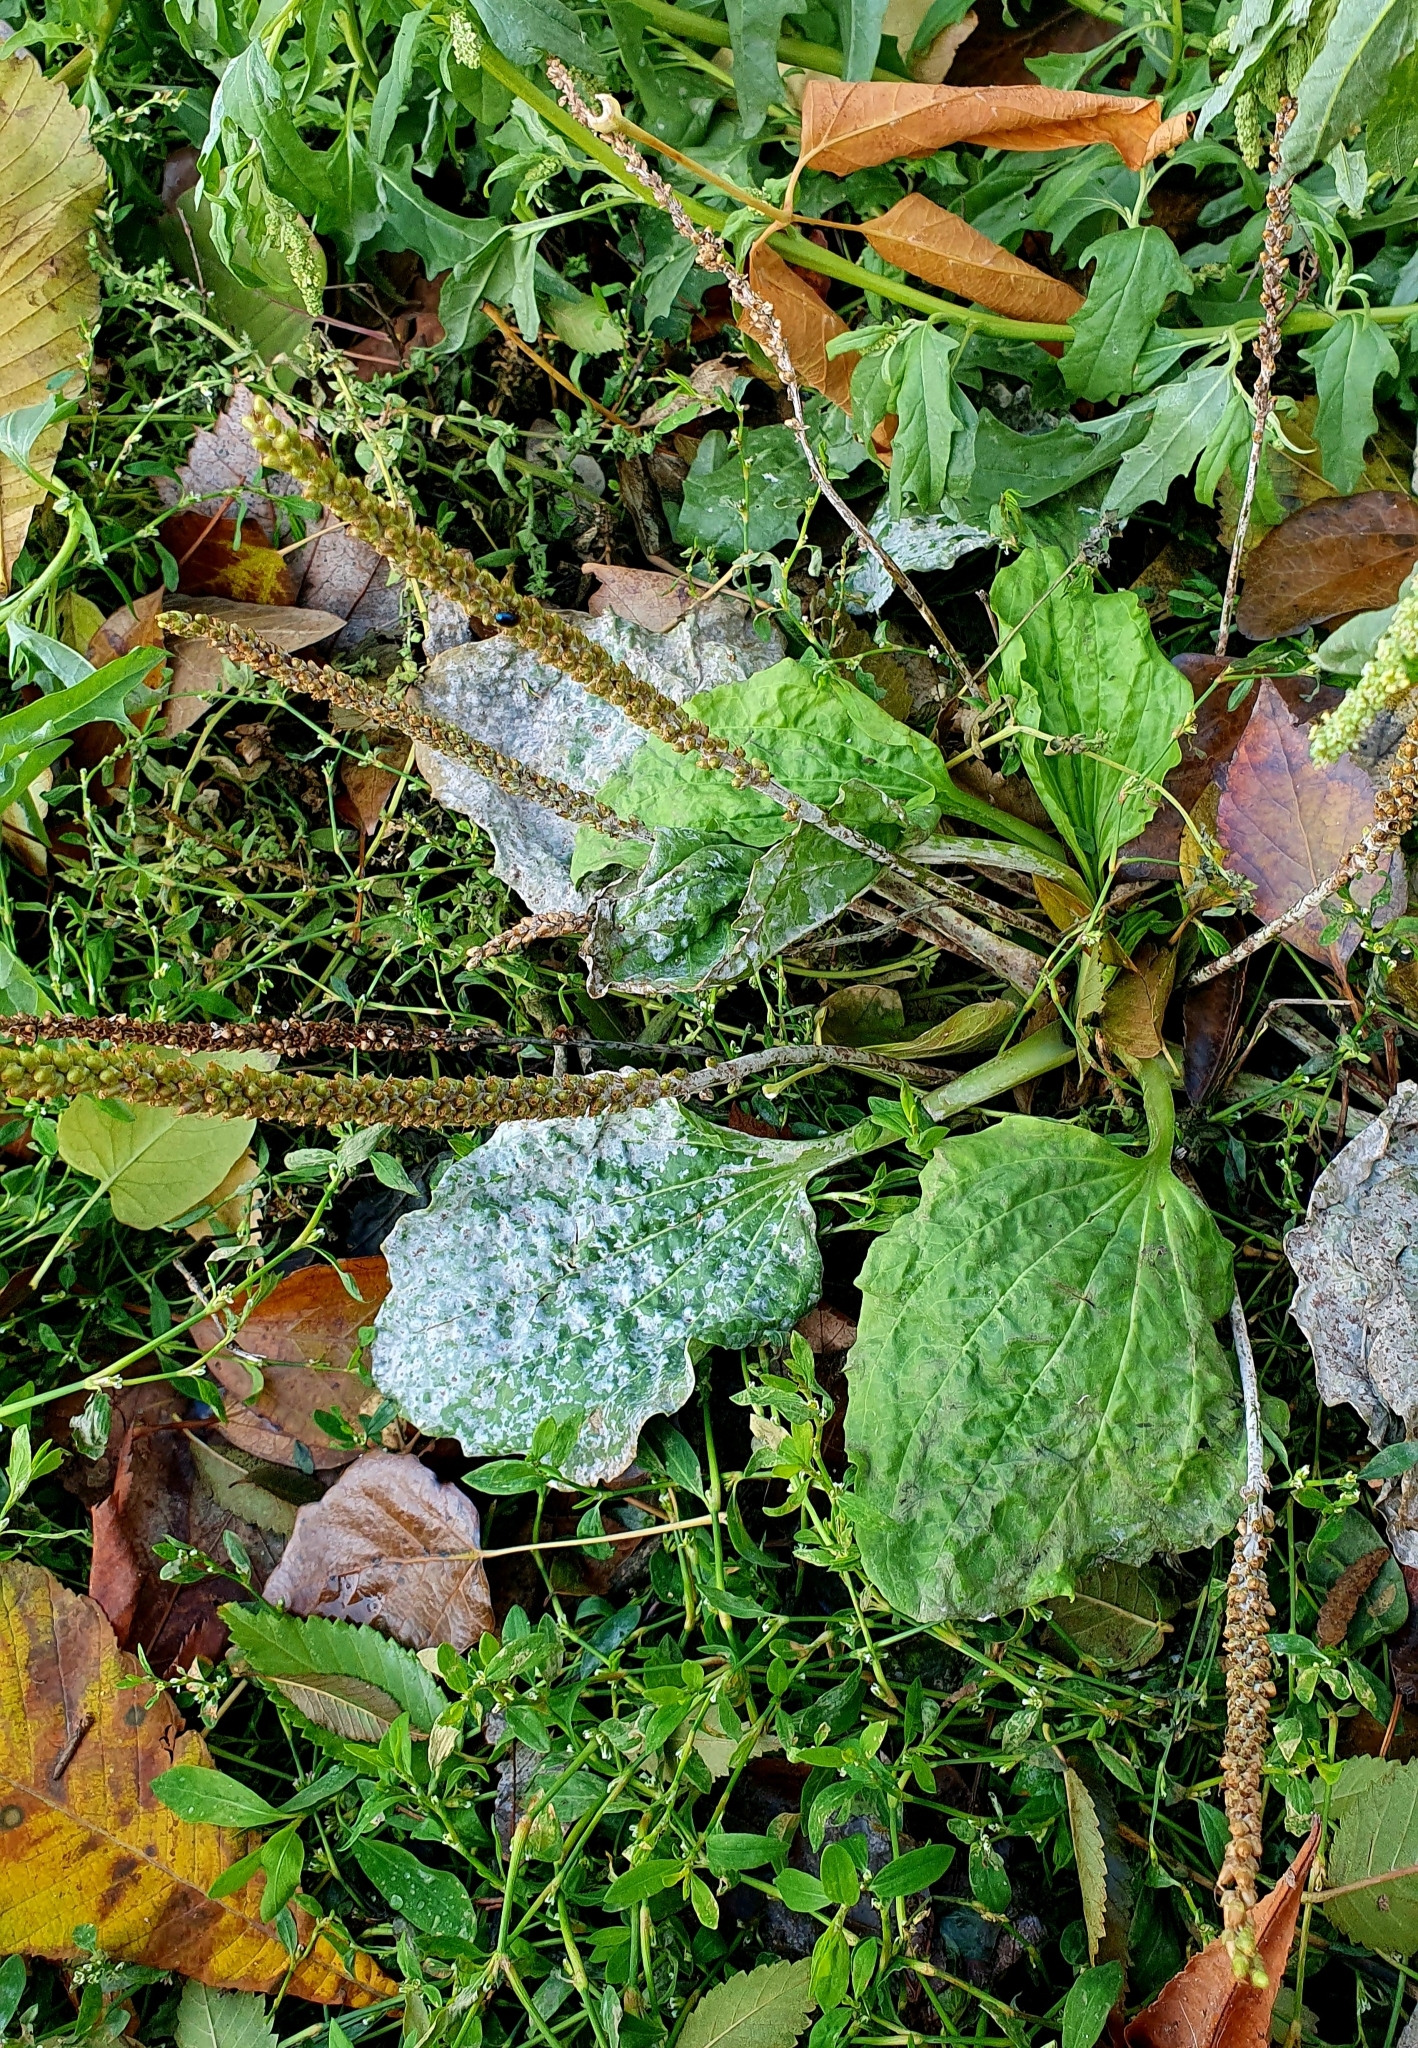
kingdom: Plantae
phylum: Tracheophyta
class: Magnoliopsida
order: Lamiales
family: Plantaginaceae
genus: Plantago
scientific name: Plantago major
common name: Common plantain
